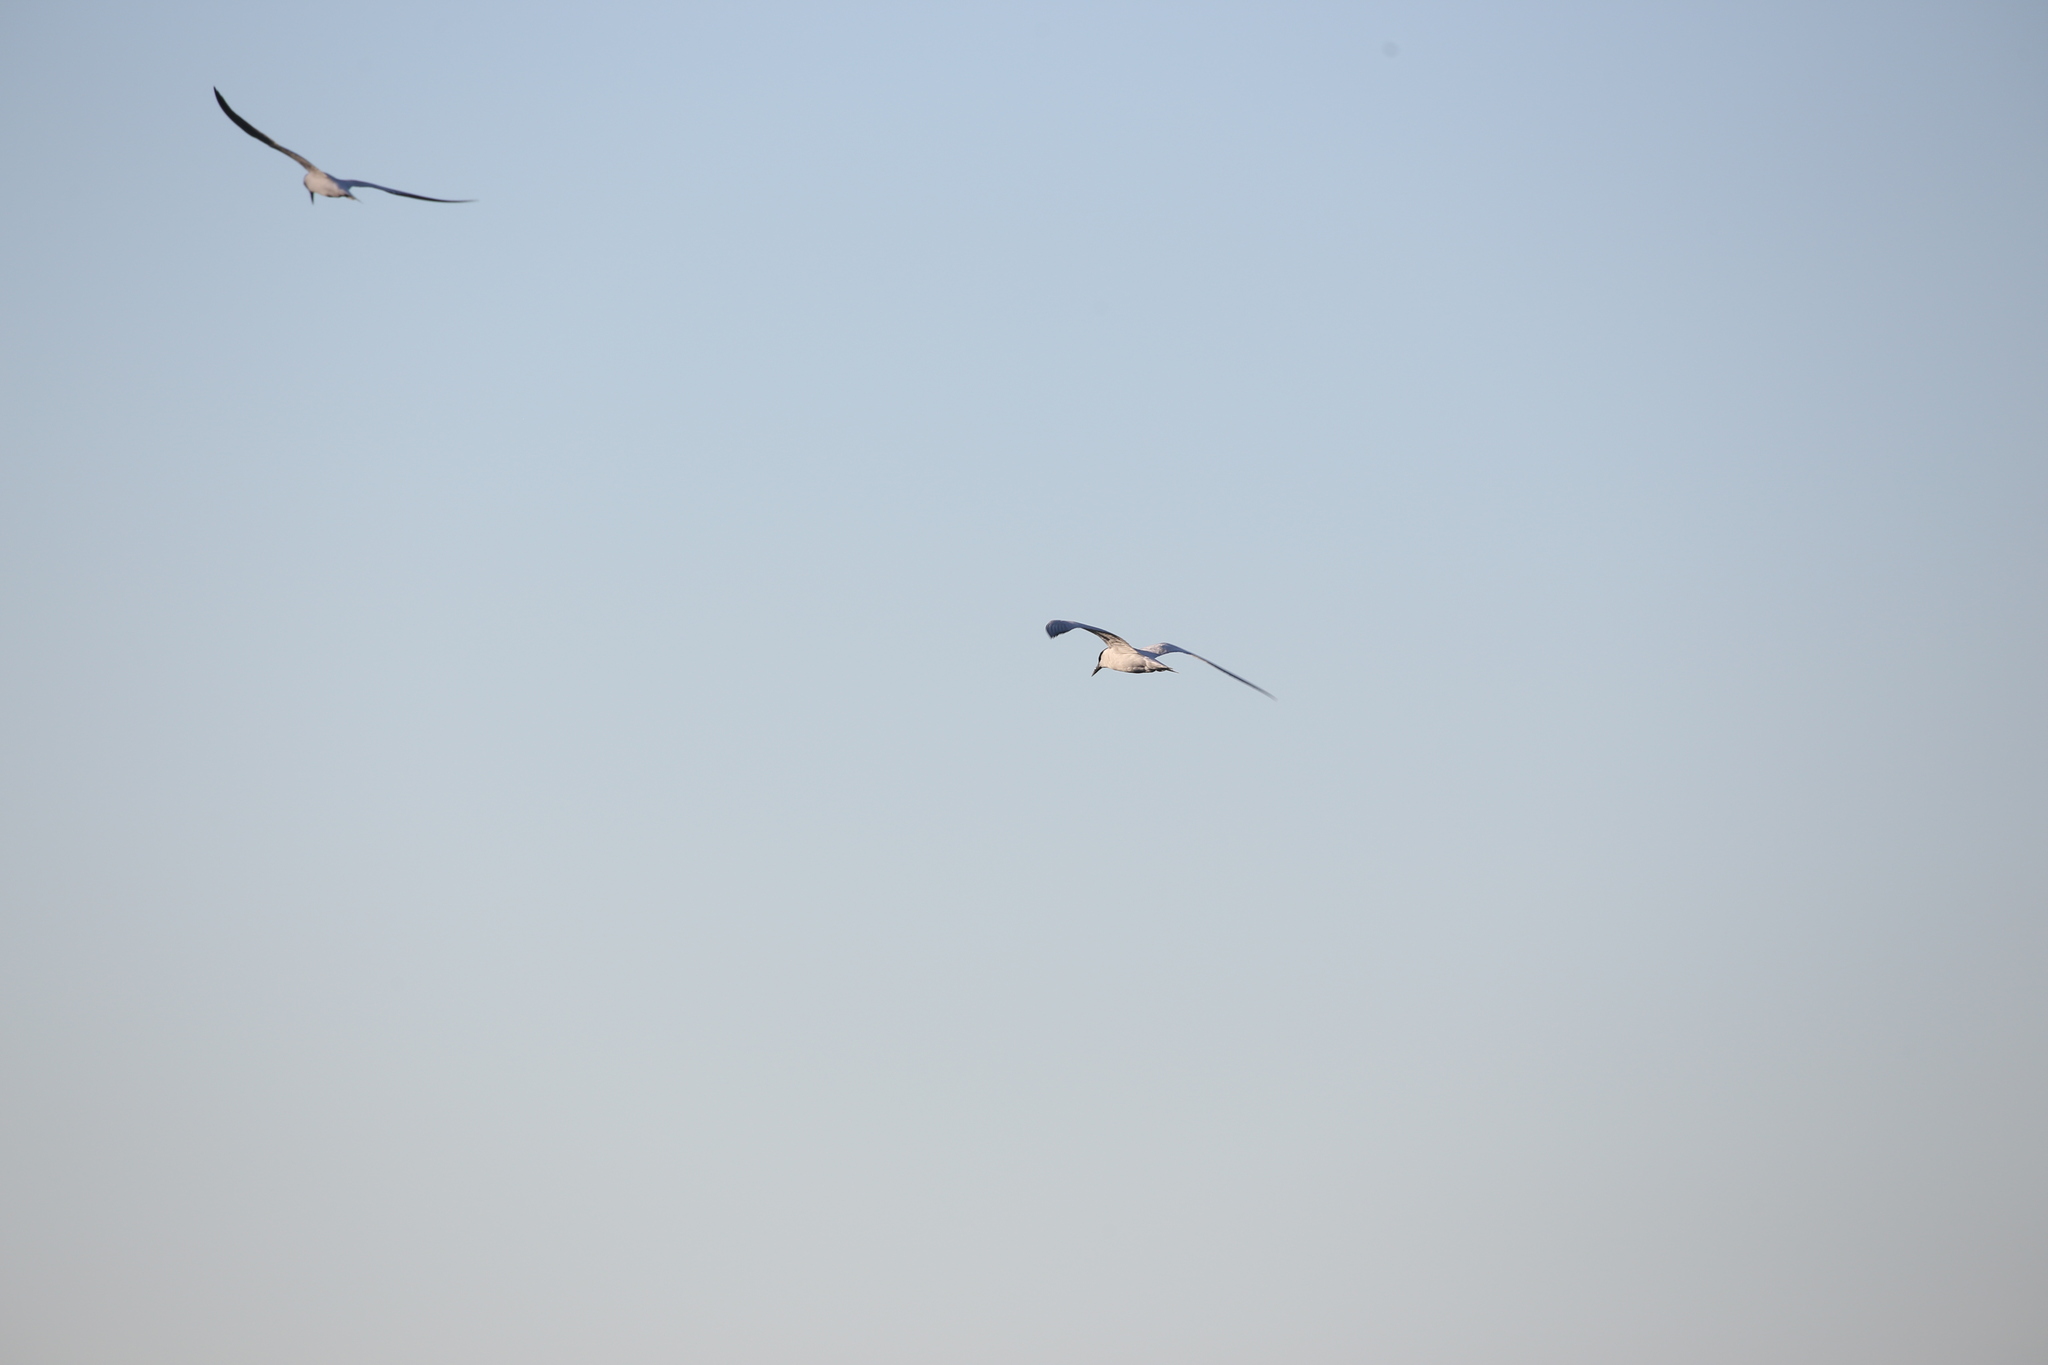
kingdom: Animalia
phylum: Chordata
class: Aves
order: Charadriiformes
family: Laridae
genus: Gelochelidon
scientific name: Gelochelidon macrotarsa
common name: Australian tern
